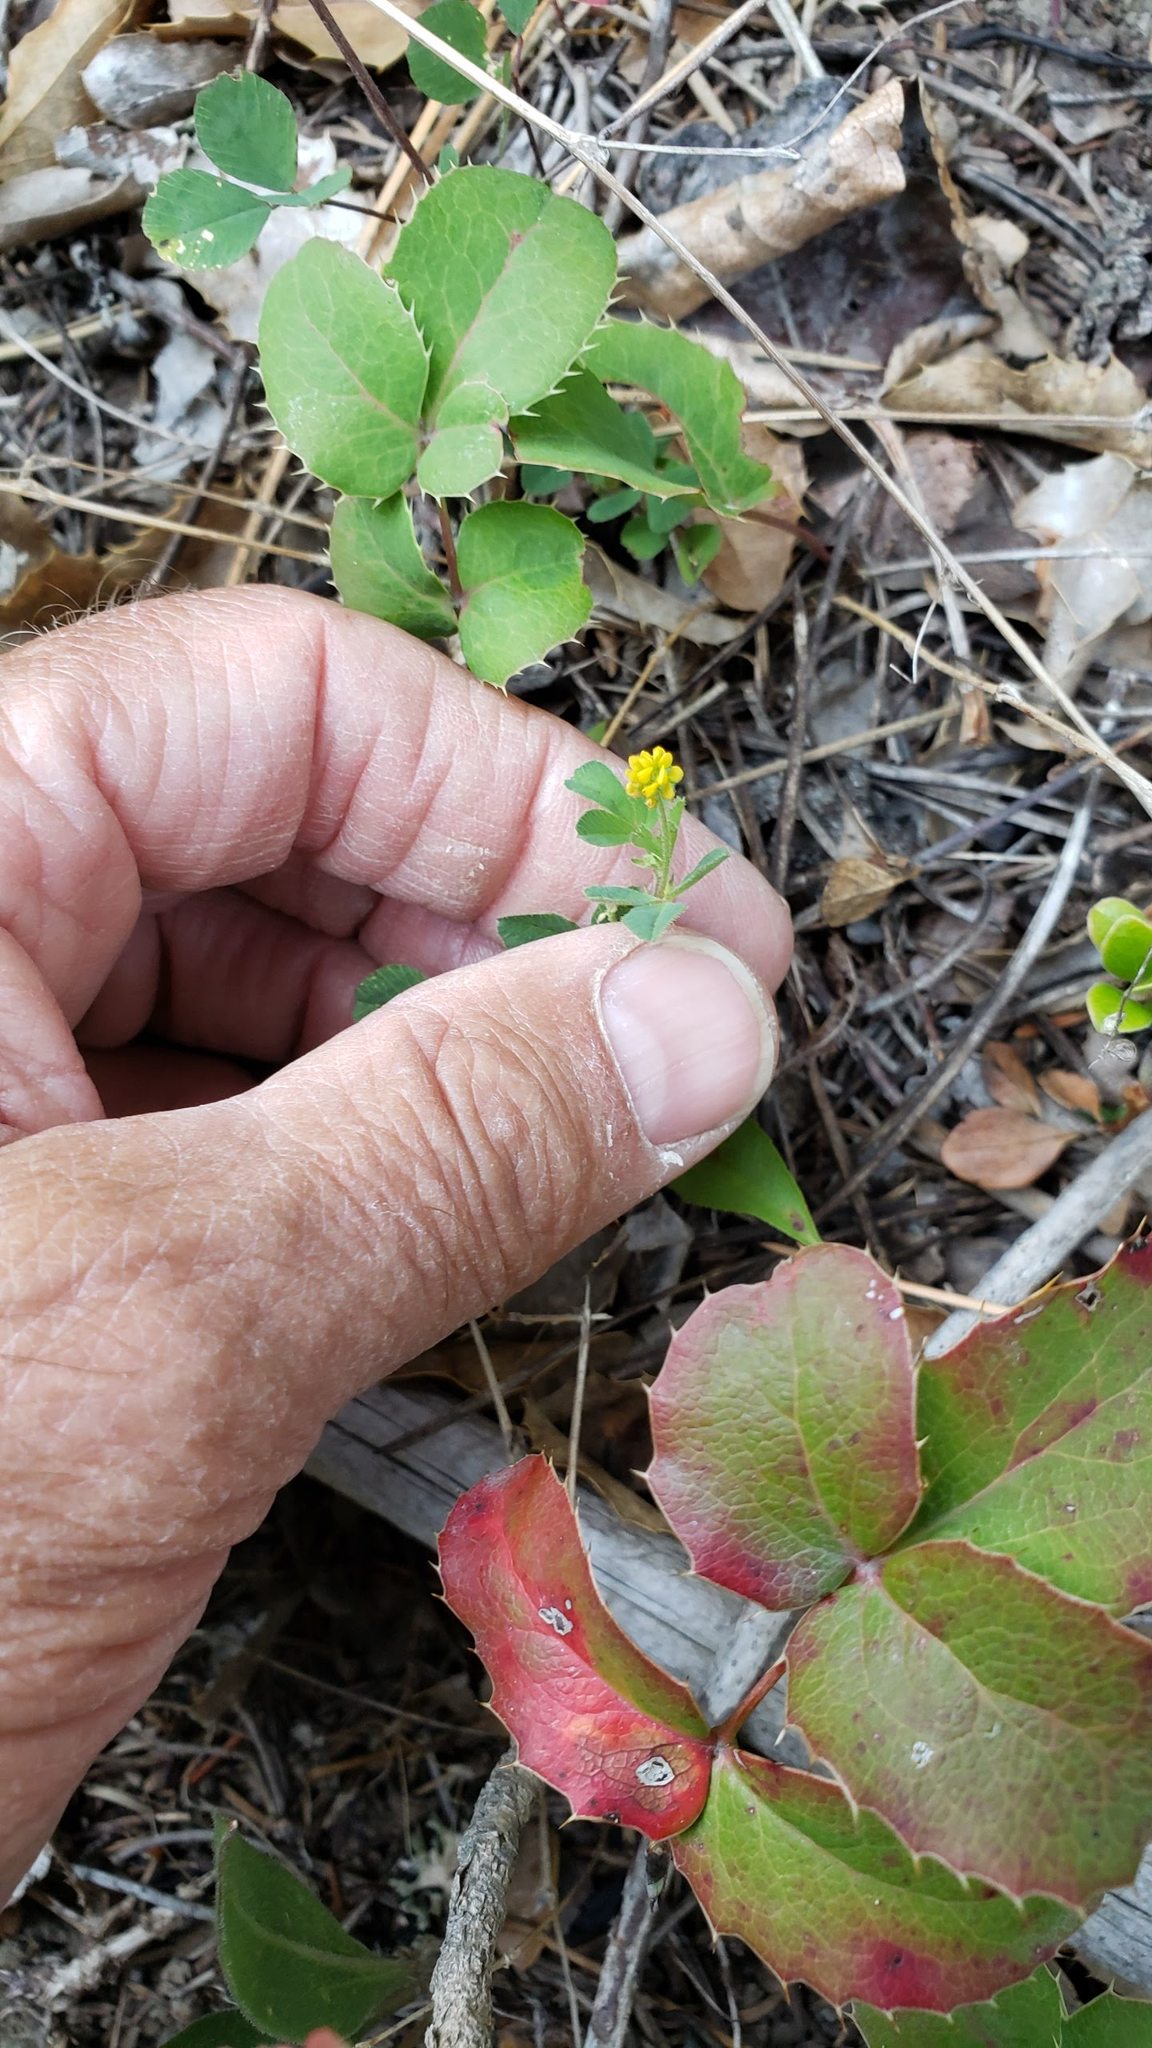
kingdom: Plantae
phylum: Tracheophyta
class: Magnoliopsida
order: Fabales
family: Fabaceae
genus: Medicago
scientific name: Medicago lupulina
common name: Black medick
